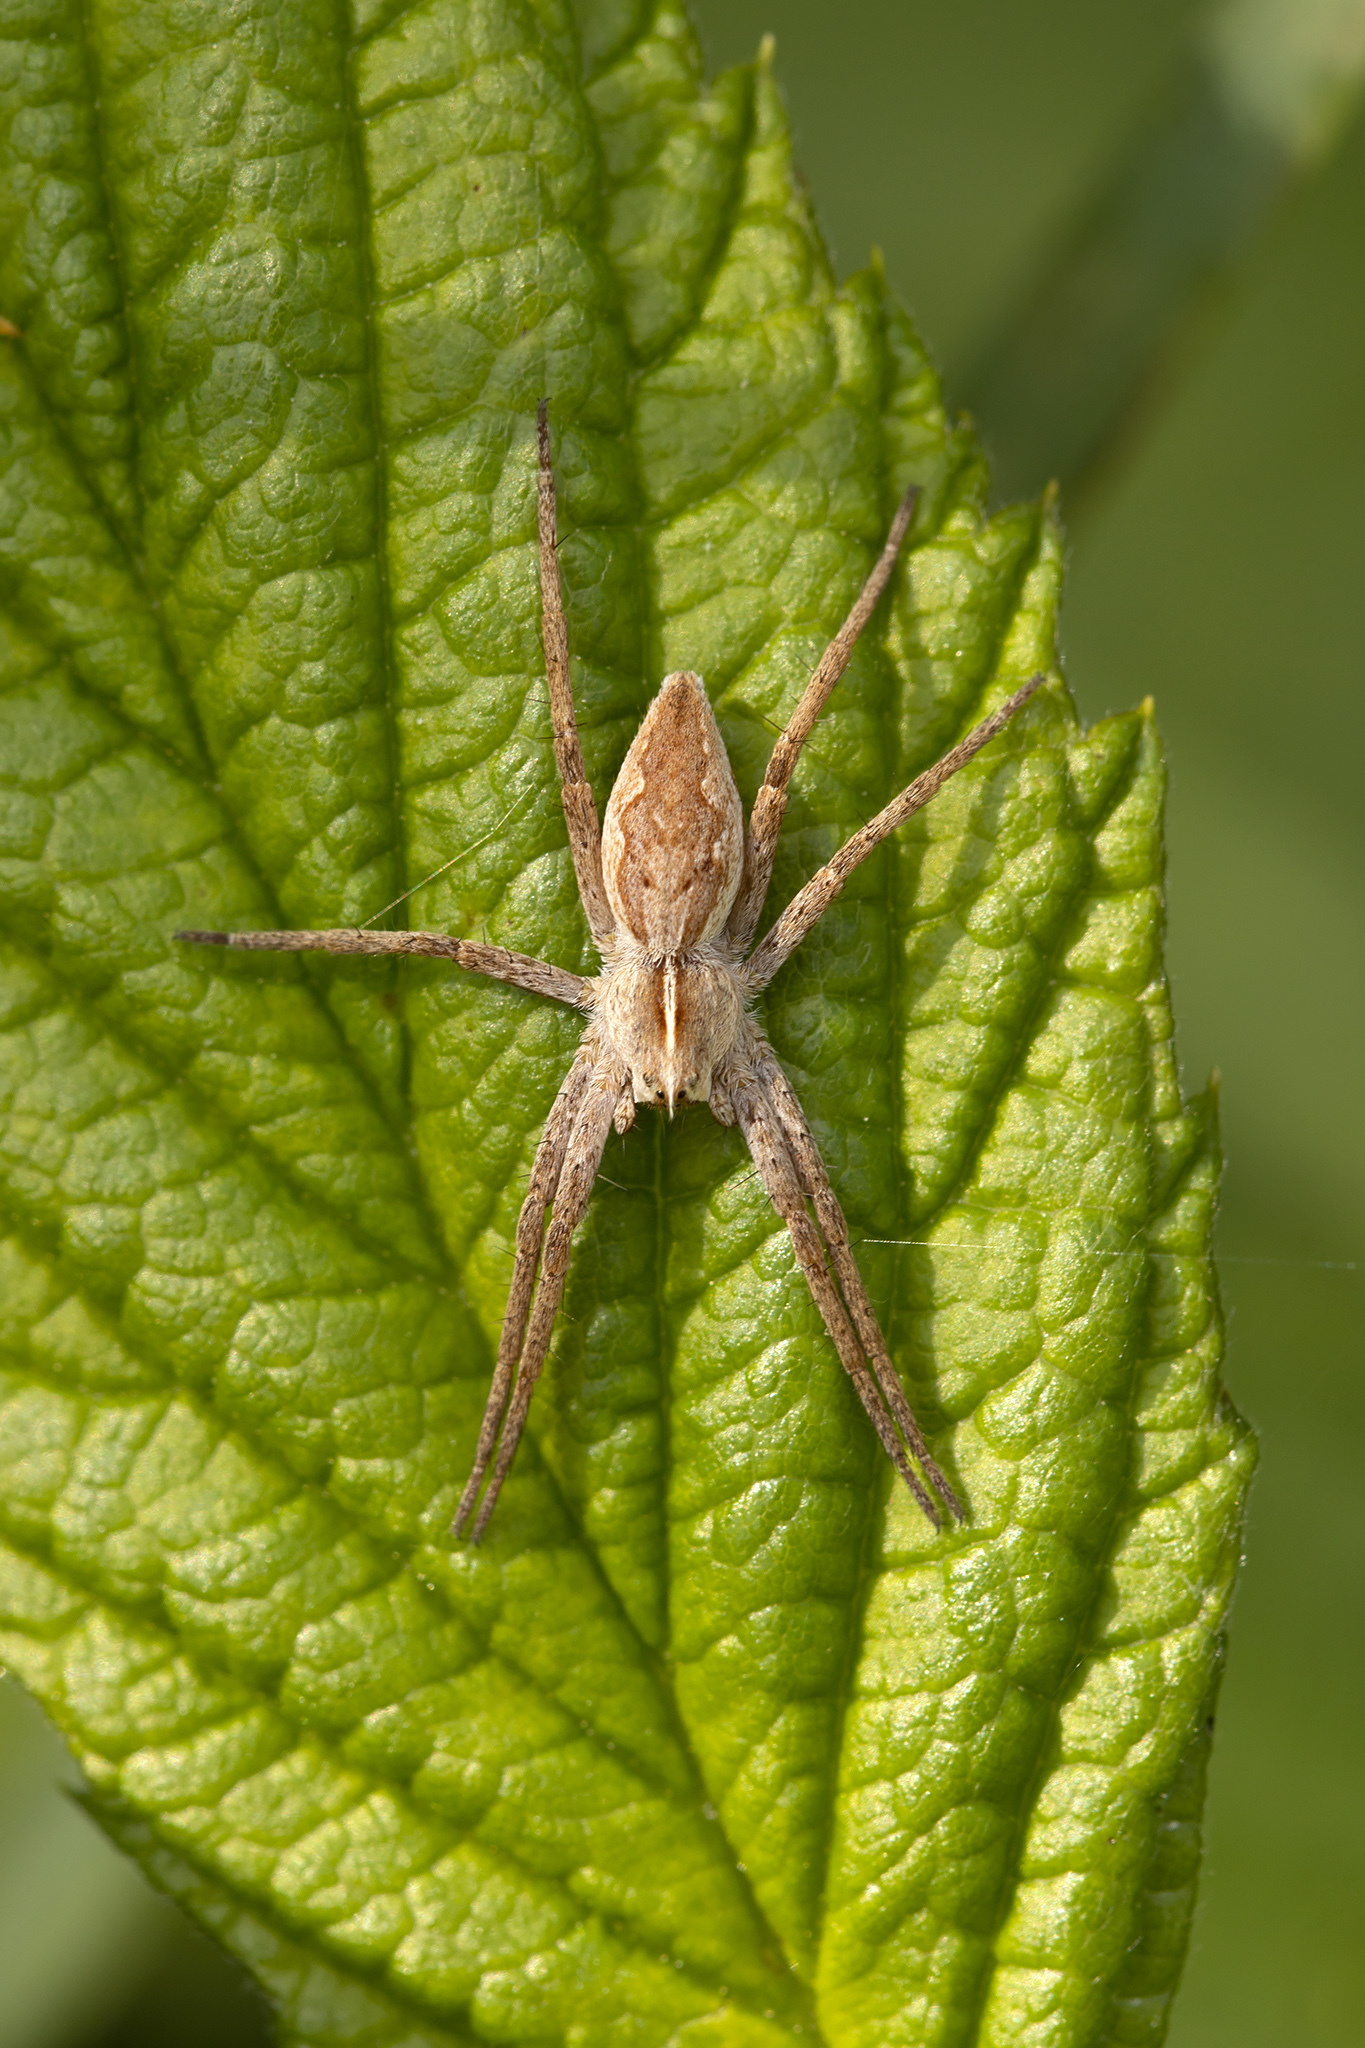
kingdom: Animalia
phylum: Arthropoda
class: Arachnida
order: Araneae
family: Pisauridae
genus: Pisaura
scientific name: Pisaura mirabilis
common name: Tent spider
